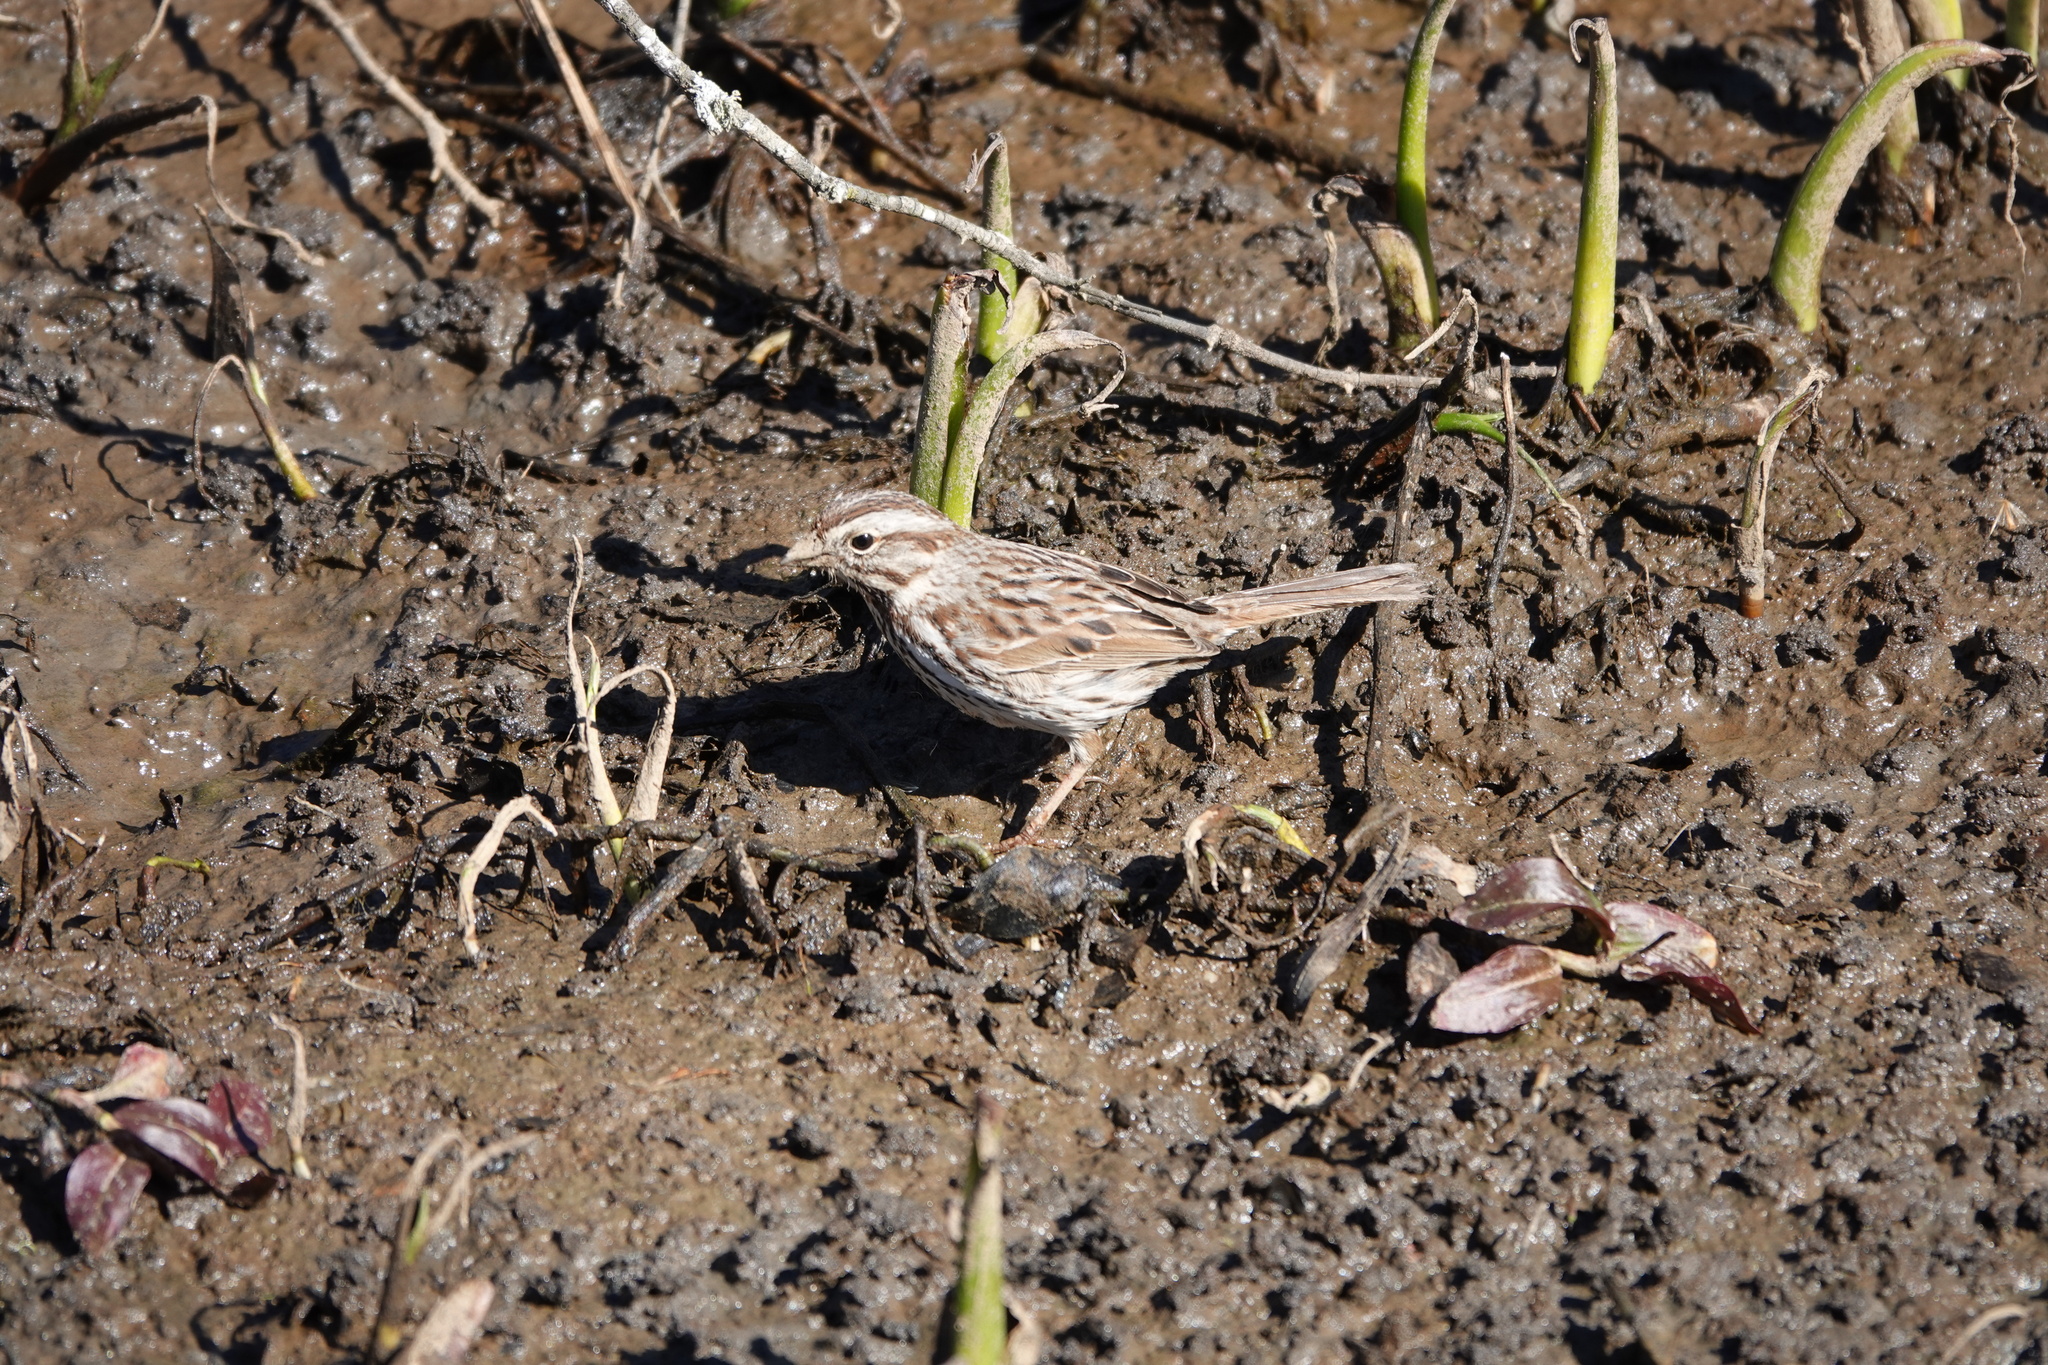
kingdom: Animalia
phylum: Chordata
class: Aves
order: Passeriformes
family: Passerellidae
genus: Melospiza
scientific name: Melospiza melodia
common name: Song sparrow
